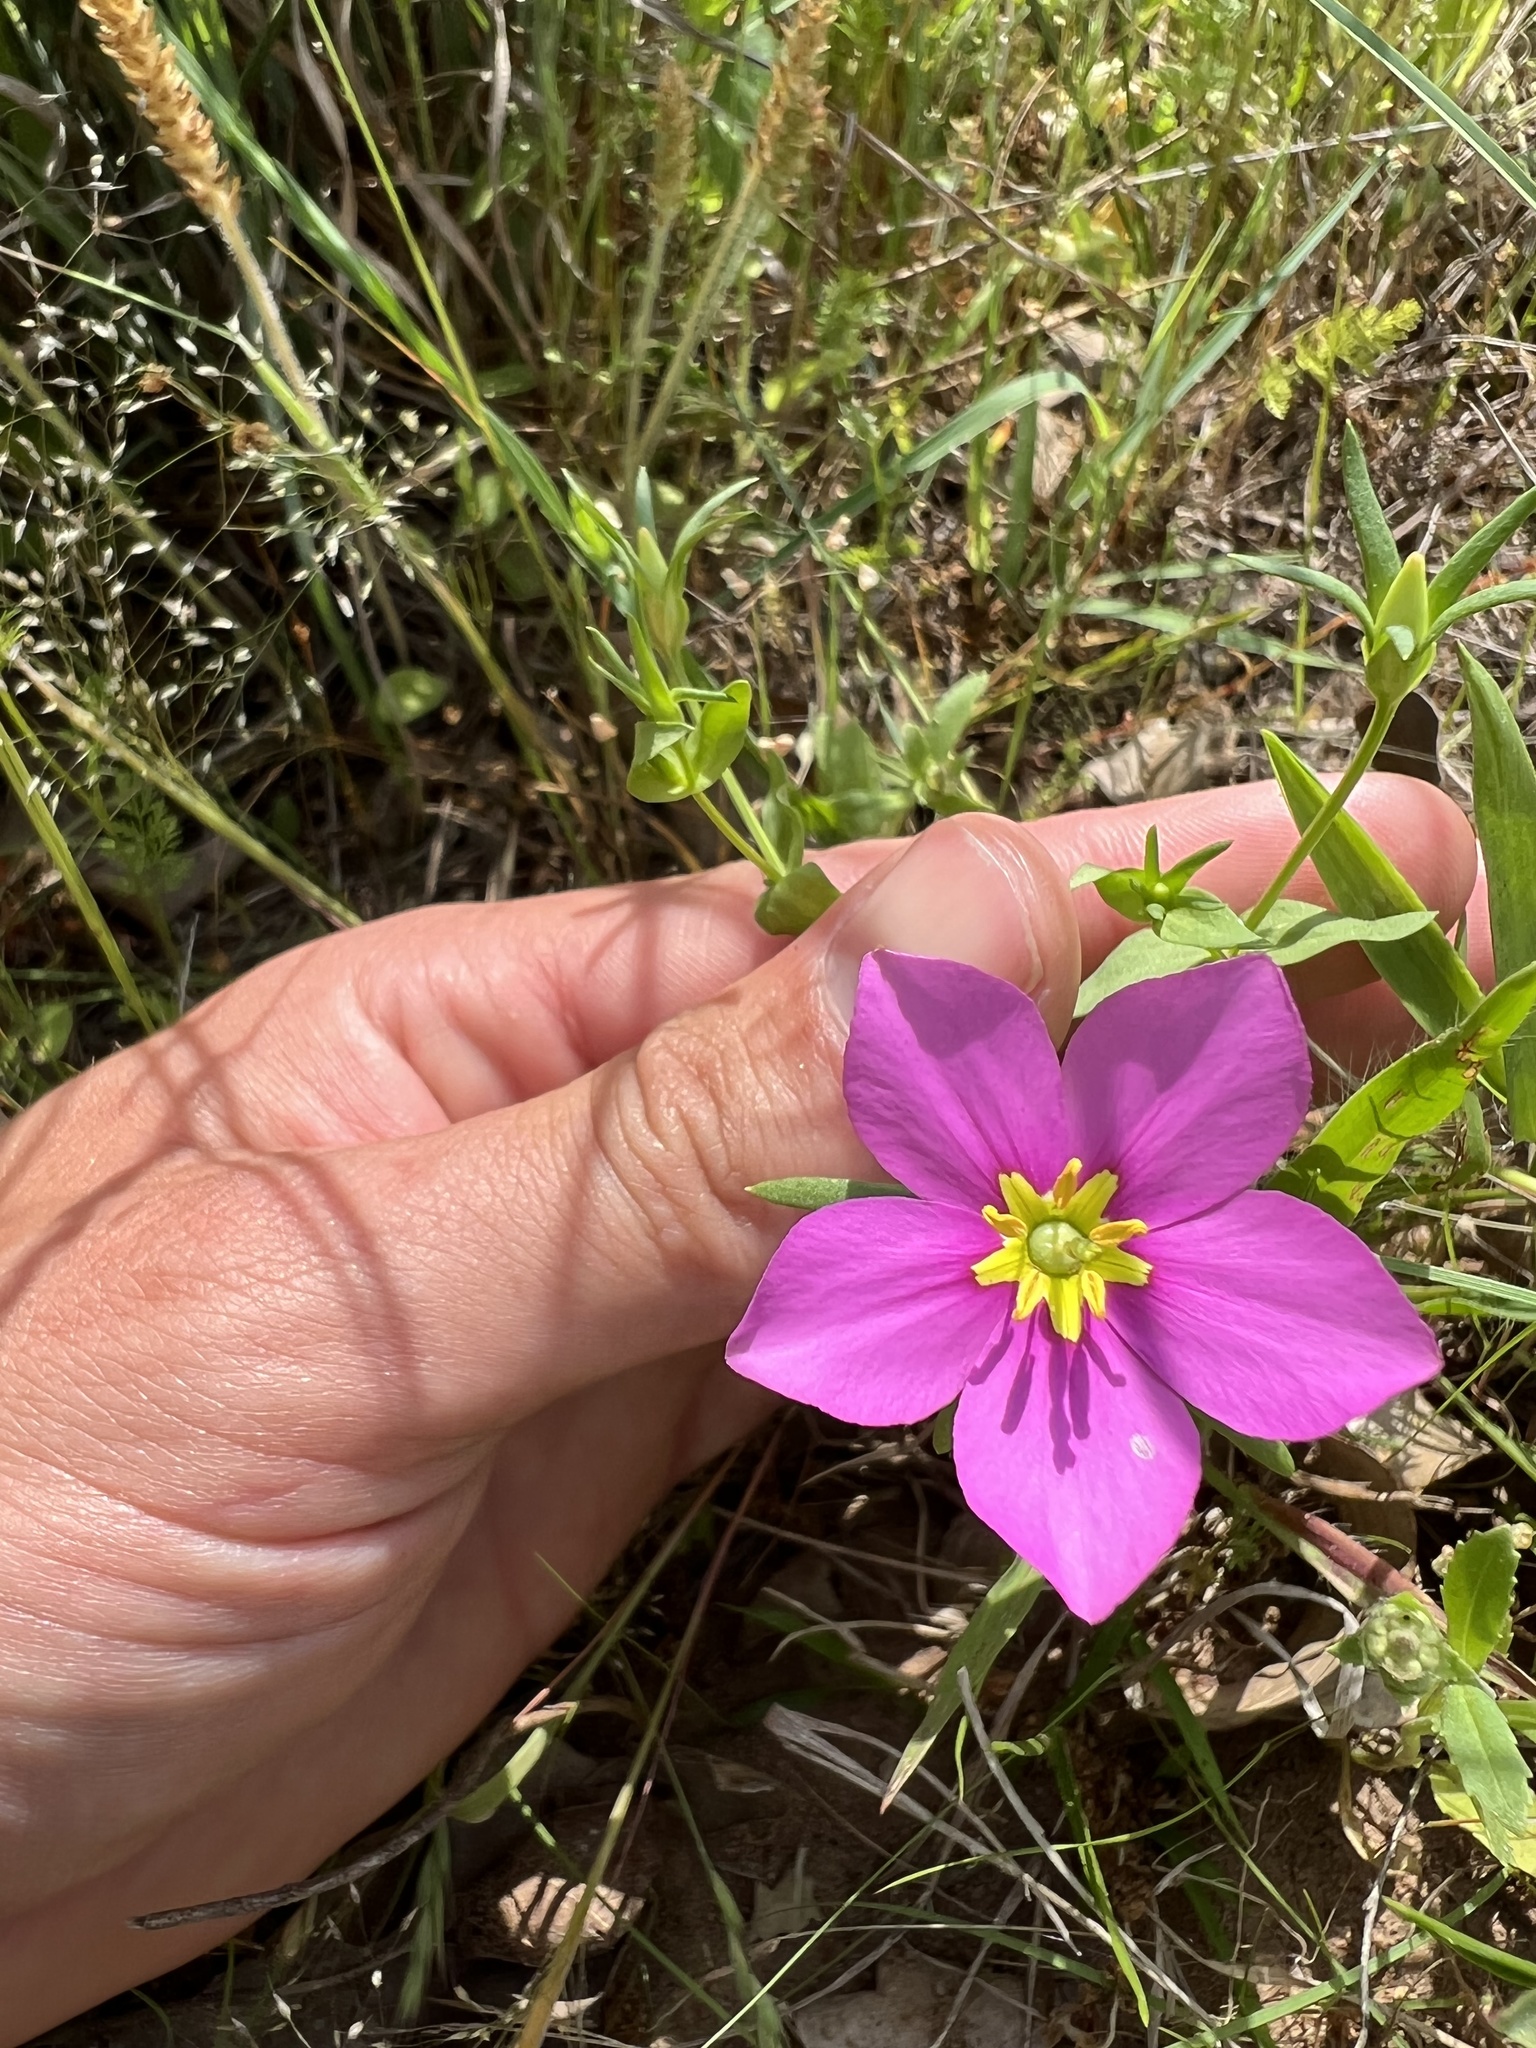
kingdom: Plantae
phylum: Tracheophyta
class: Magnoliopsida
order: Gentianales
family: Gentianaceae
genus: Sabatia
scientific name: Sabatia campestris
